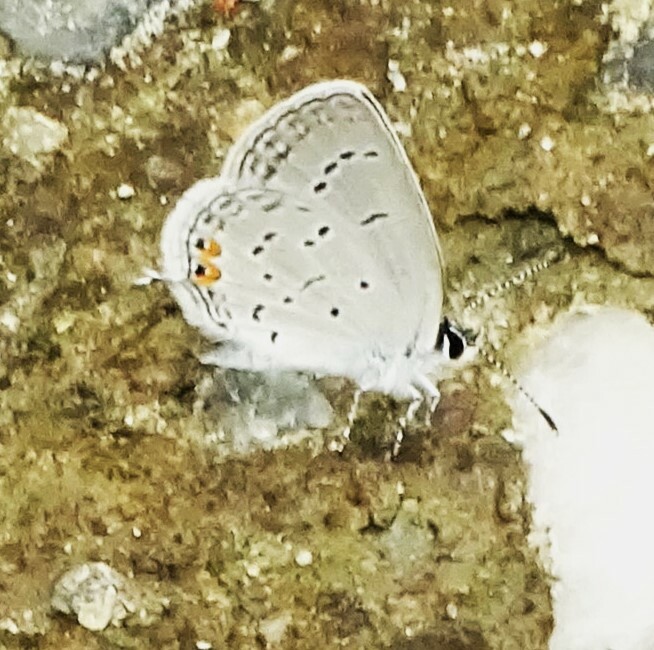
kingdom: Animalia
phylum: Arthropoda
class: Insecta
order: Lepidoptera
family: Lycaenidae
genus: Elkalyce
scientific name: Elkalyce comyntas
